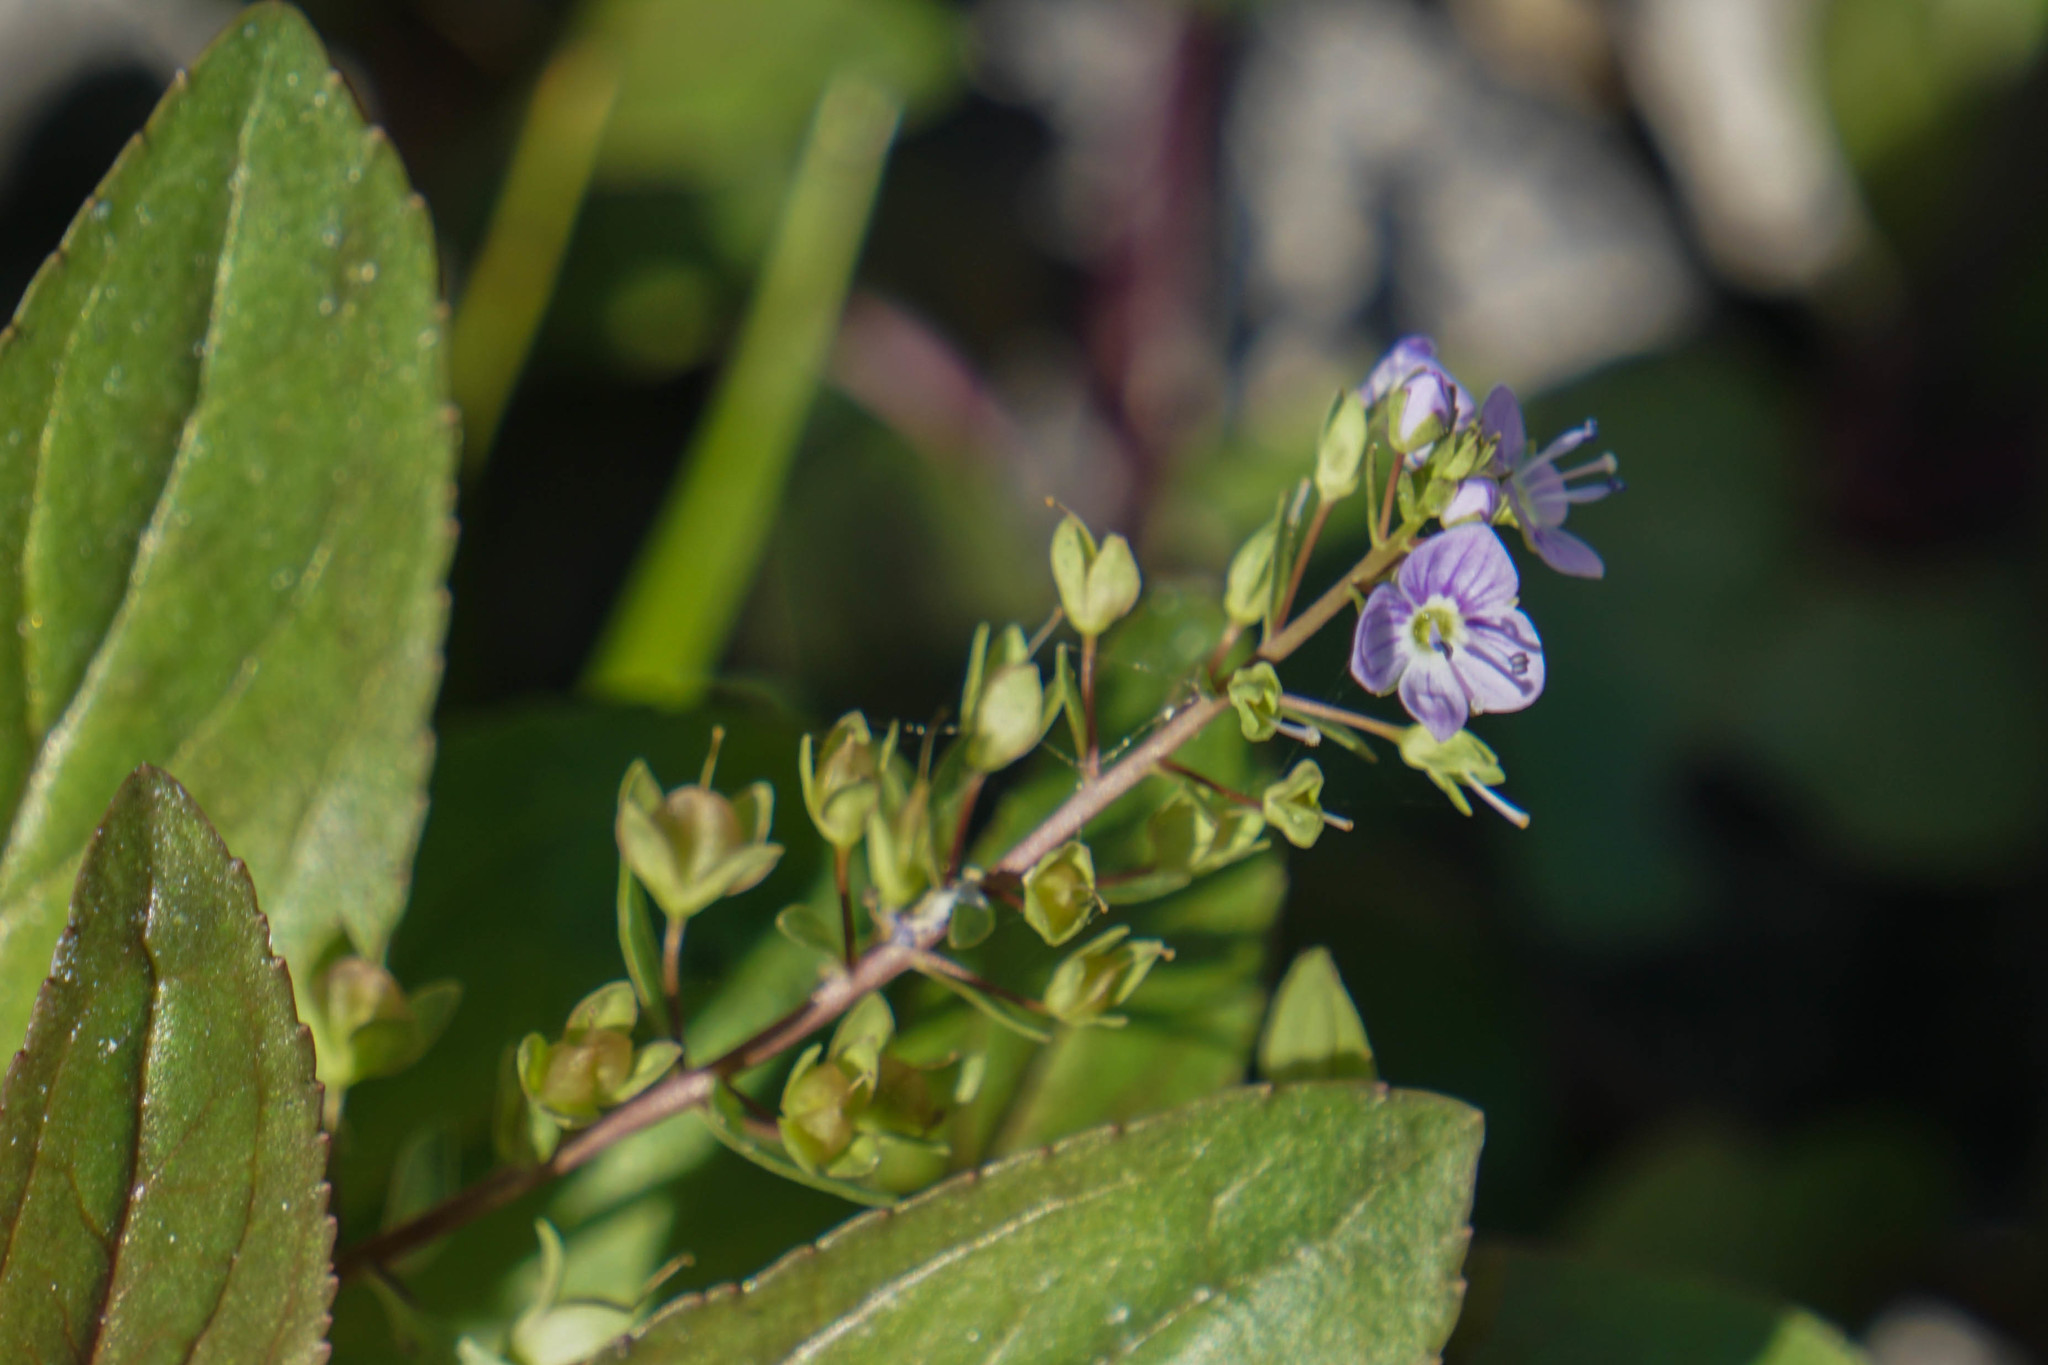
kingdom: Plantae
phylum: Tracheophyta
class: Magnoliopsida
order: Lamiales
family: Plantaginaceae
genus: Veronica
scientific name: Veronica anagallis-aquatica
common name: Water speedwell
